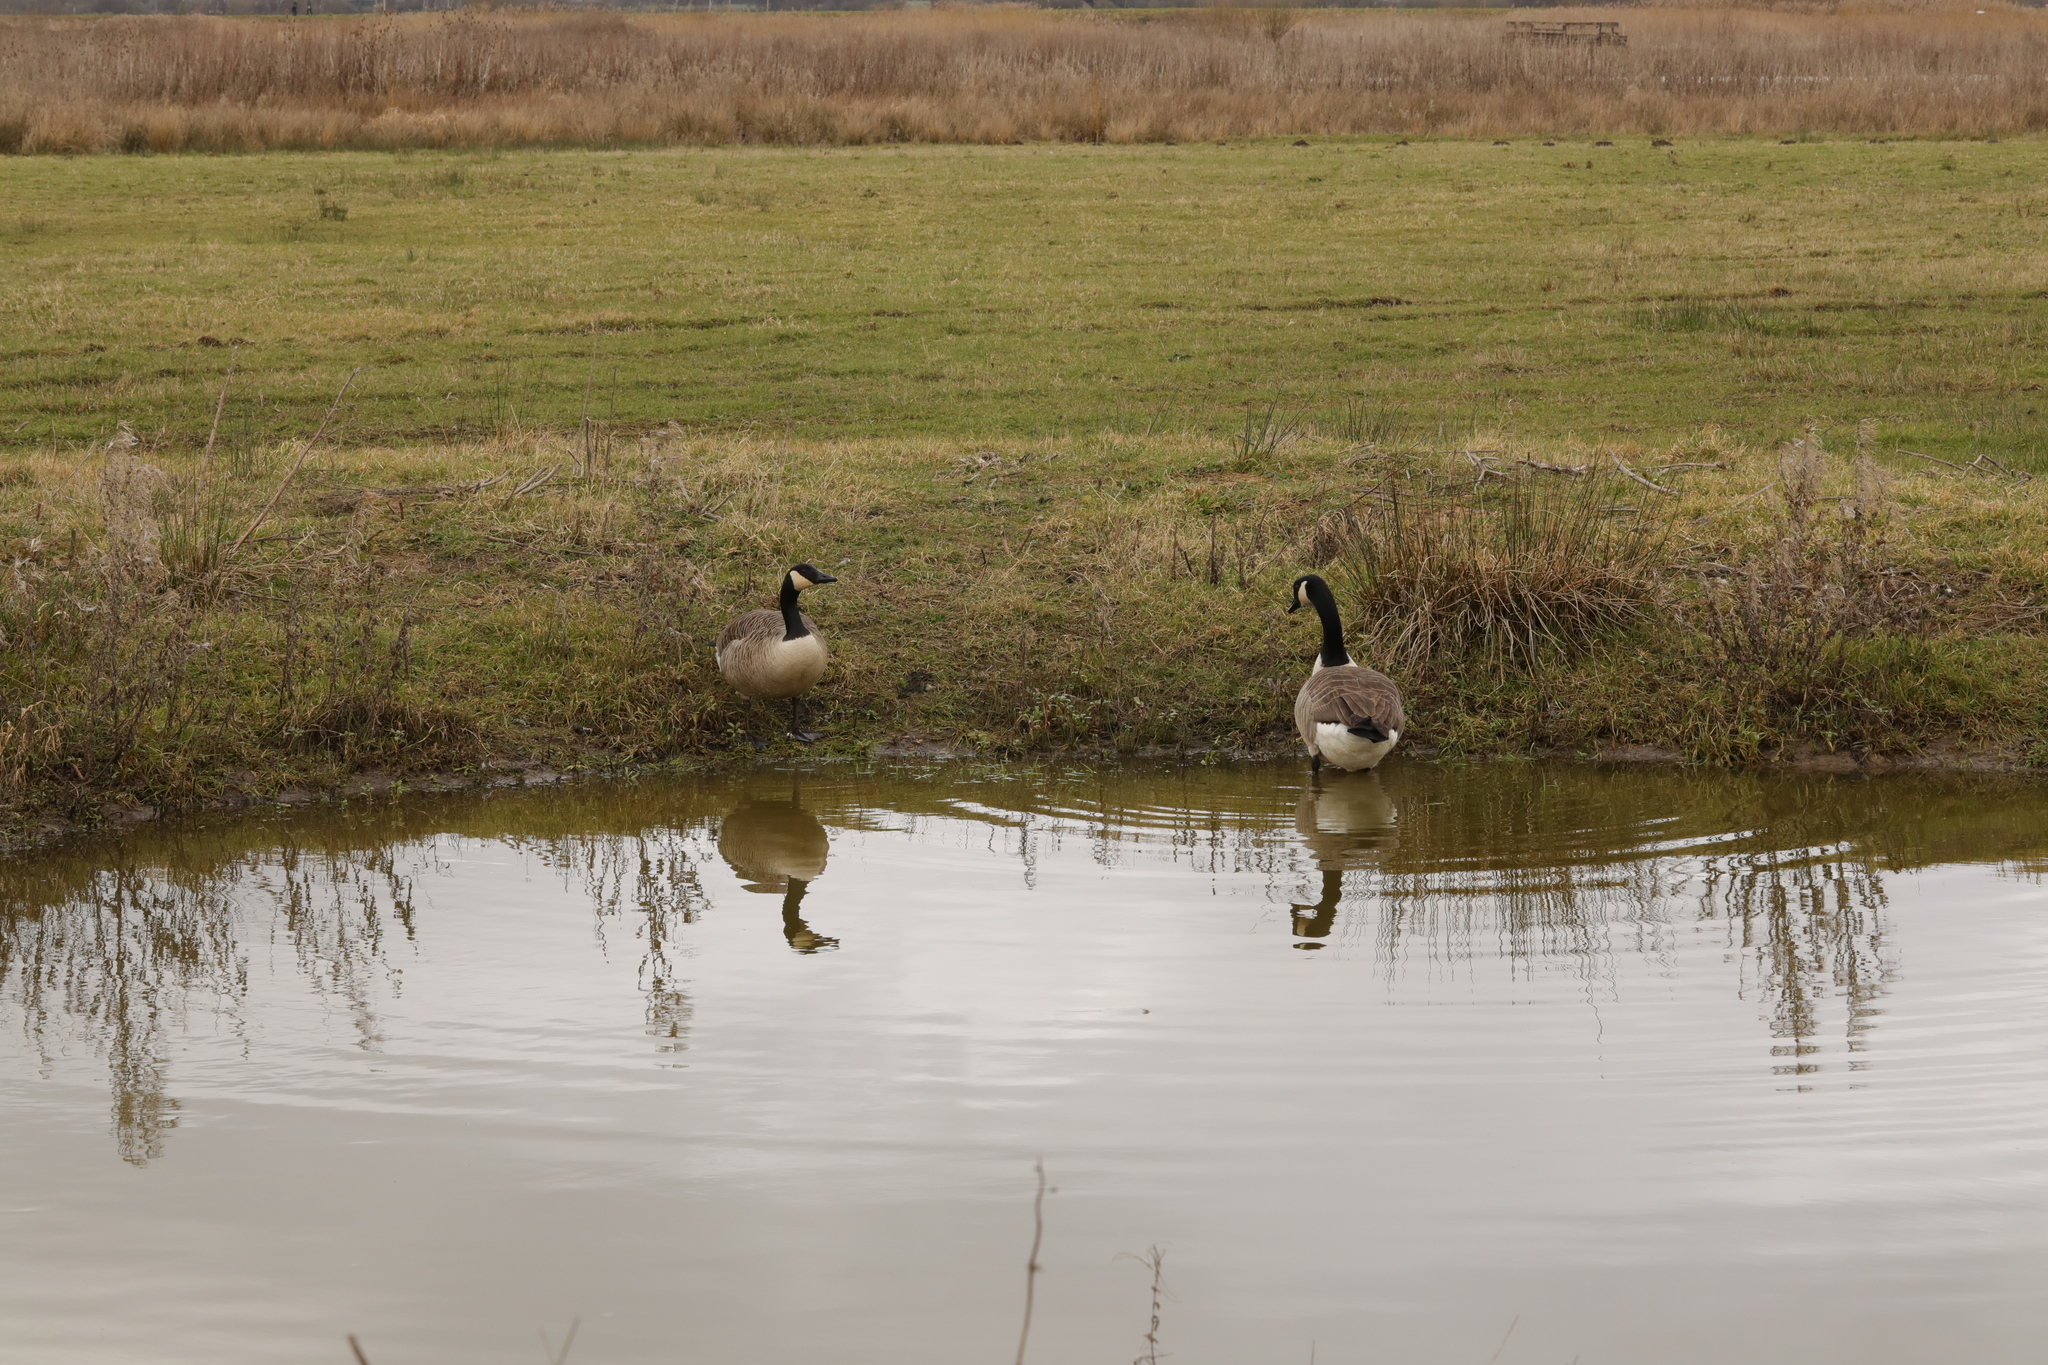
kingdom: Animalia
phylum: Chordata
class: Aves
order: Anseriformes
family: Anatidae
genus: Branta
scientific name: Branta canadensis
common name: Canada goose
